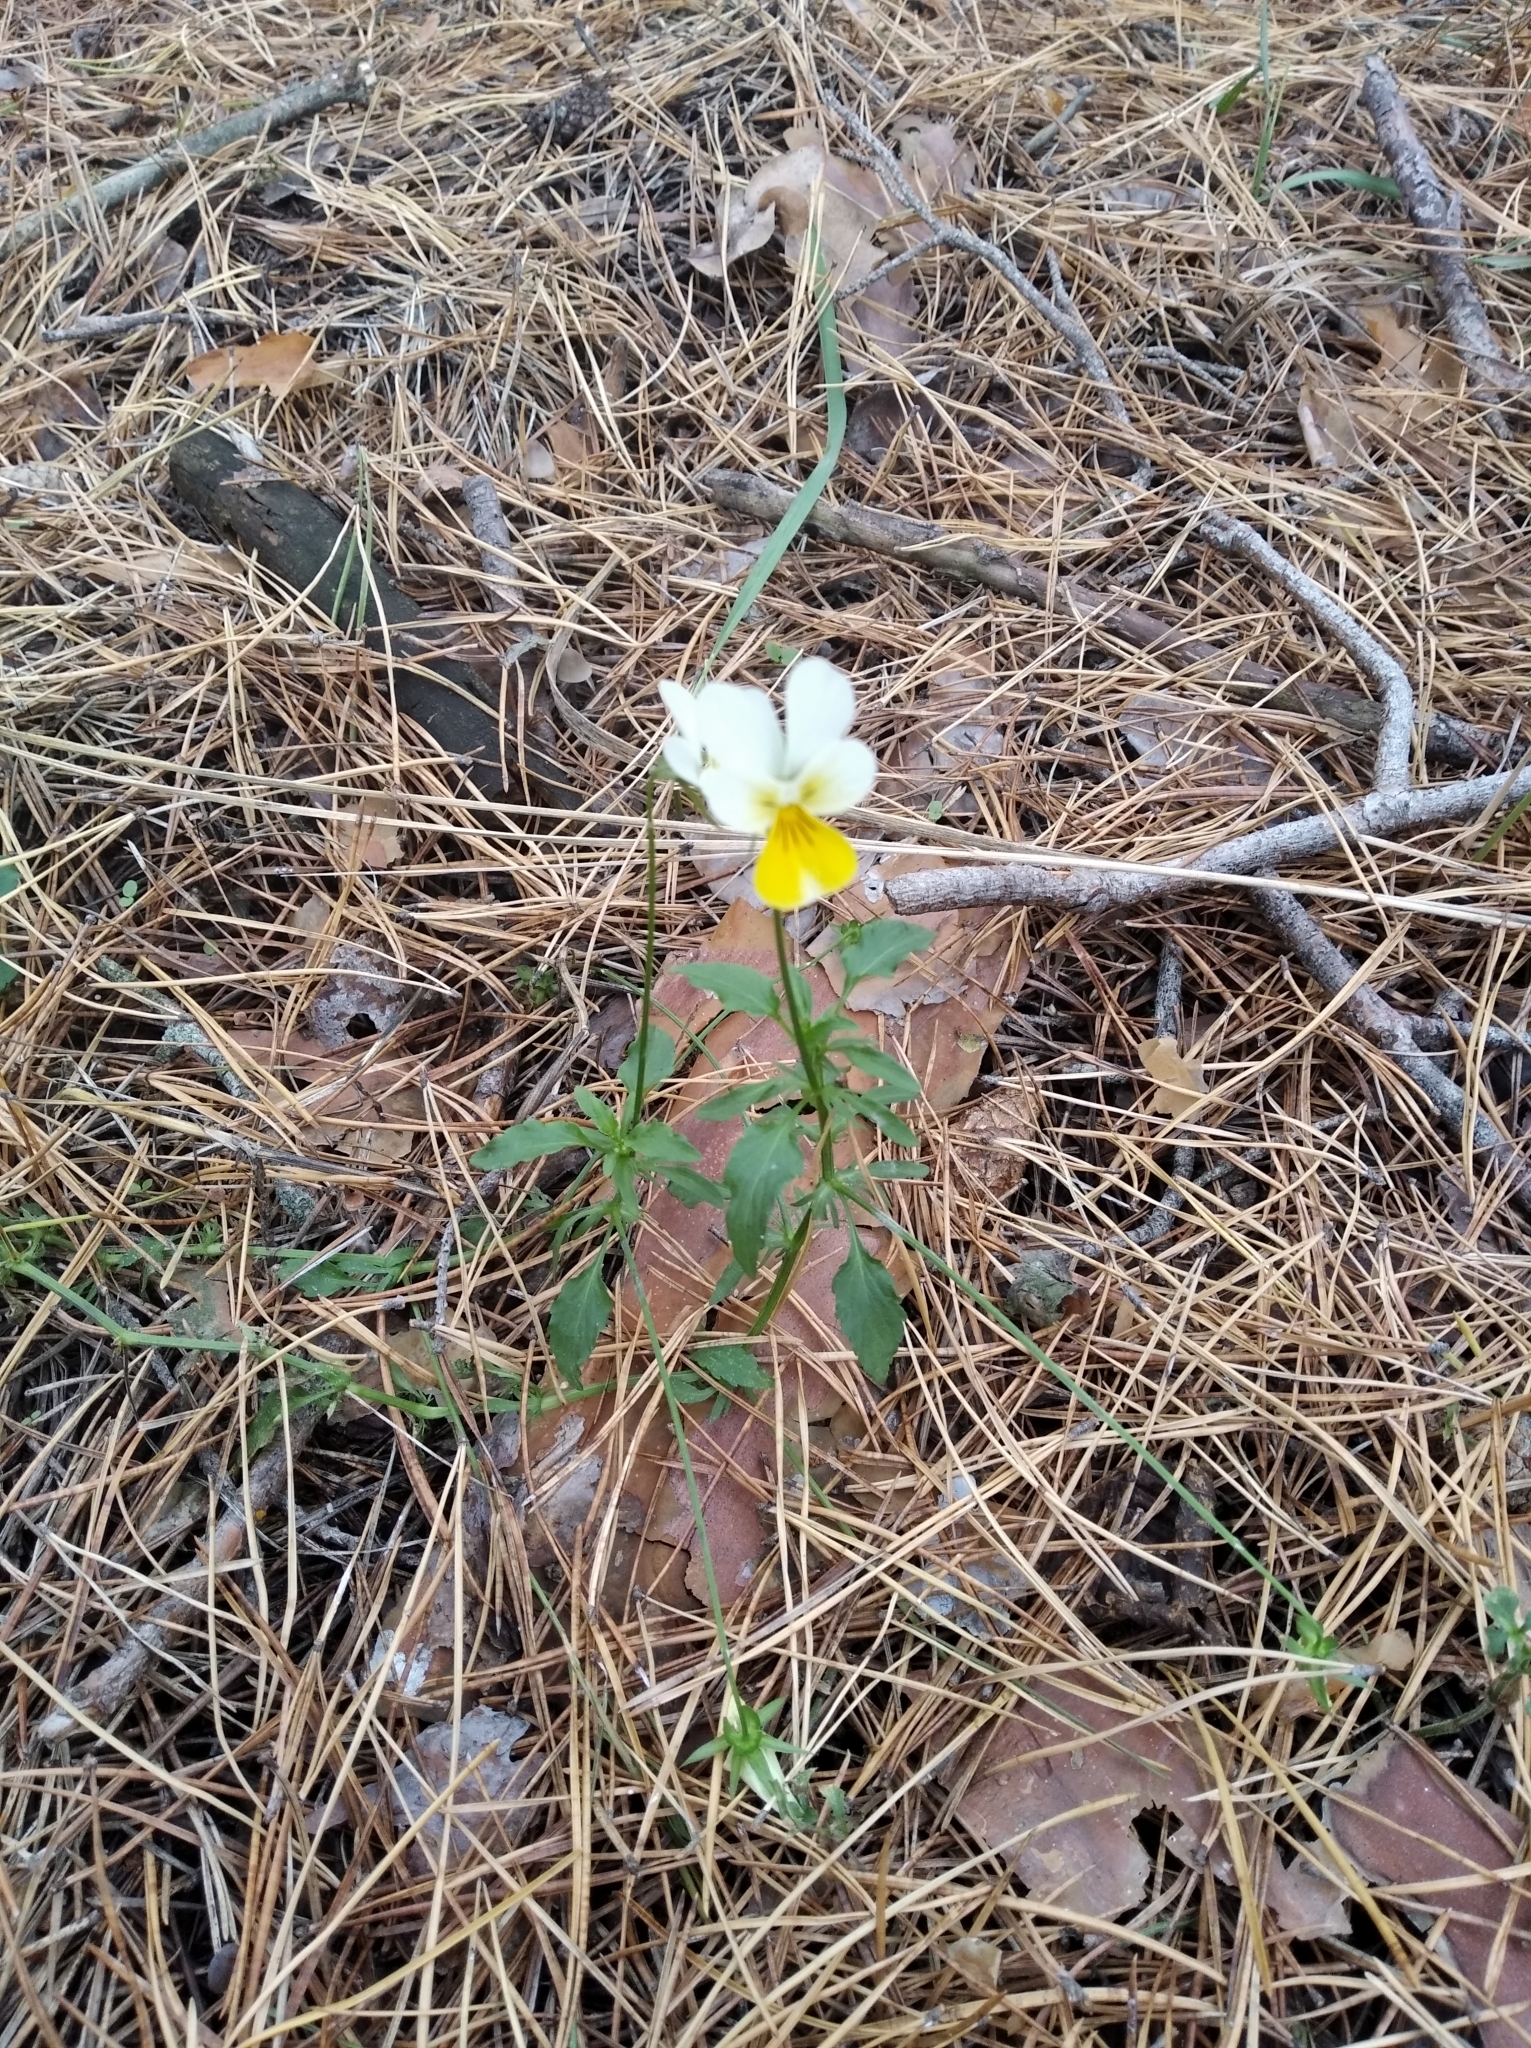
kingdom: Plantae
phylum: Tracheophyta
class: Magnoliopsida
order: Malpighiales
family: Violaceae
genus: Viola
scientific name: Viola arvensis
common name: Field pansy
